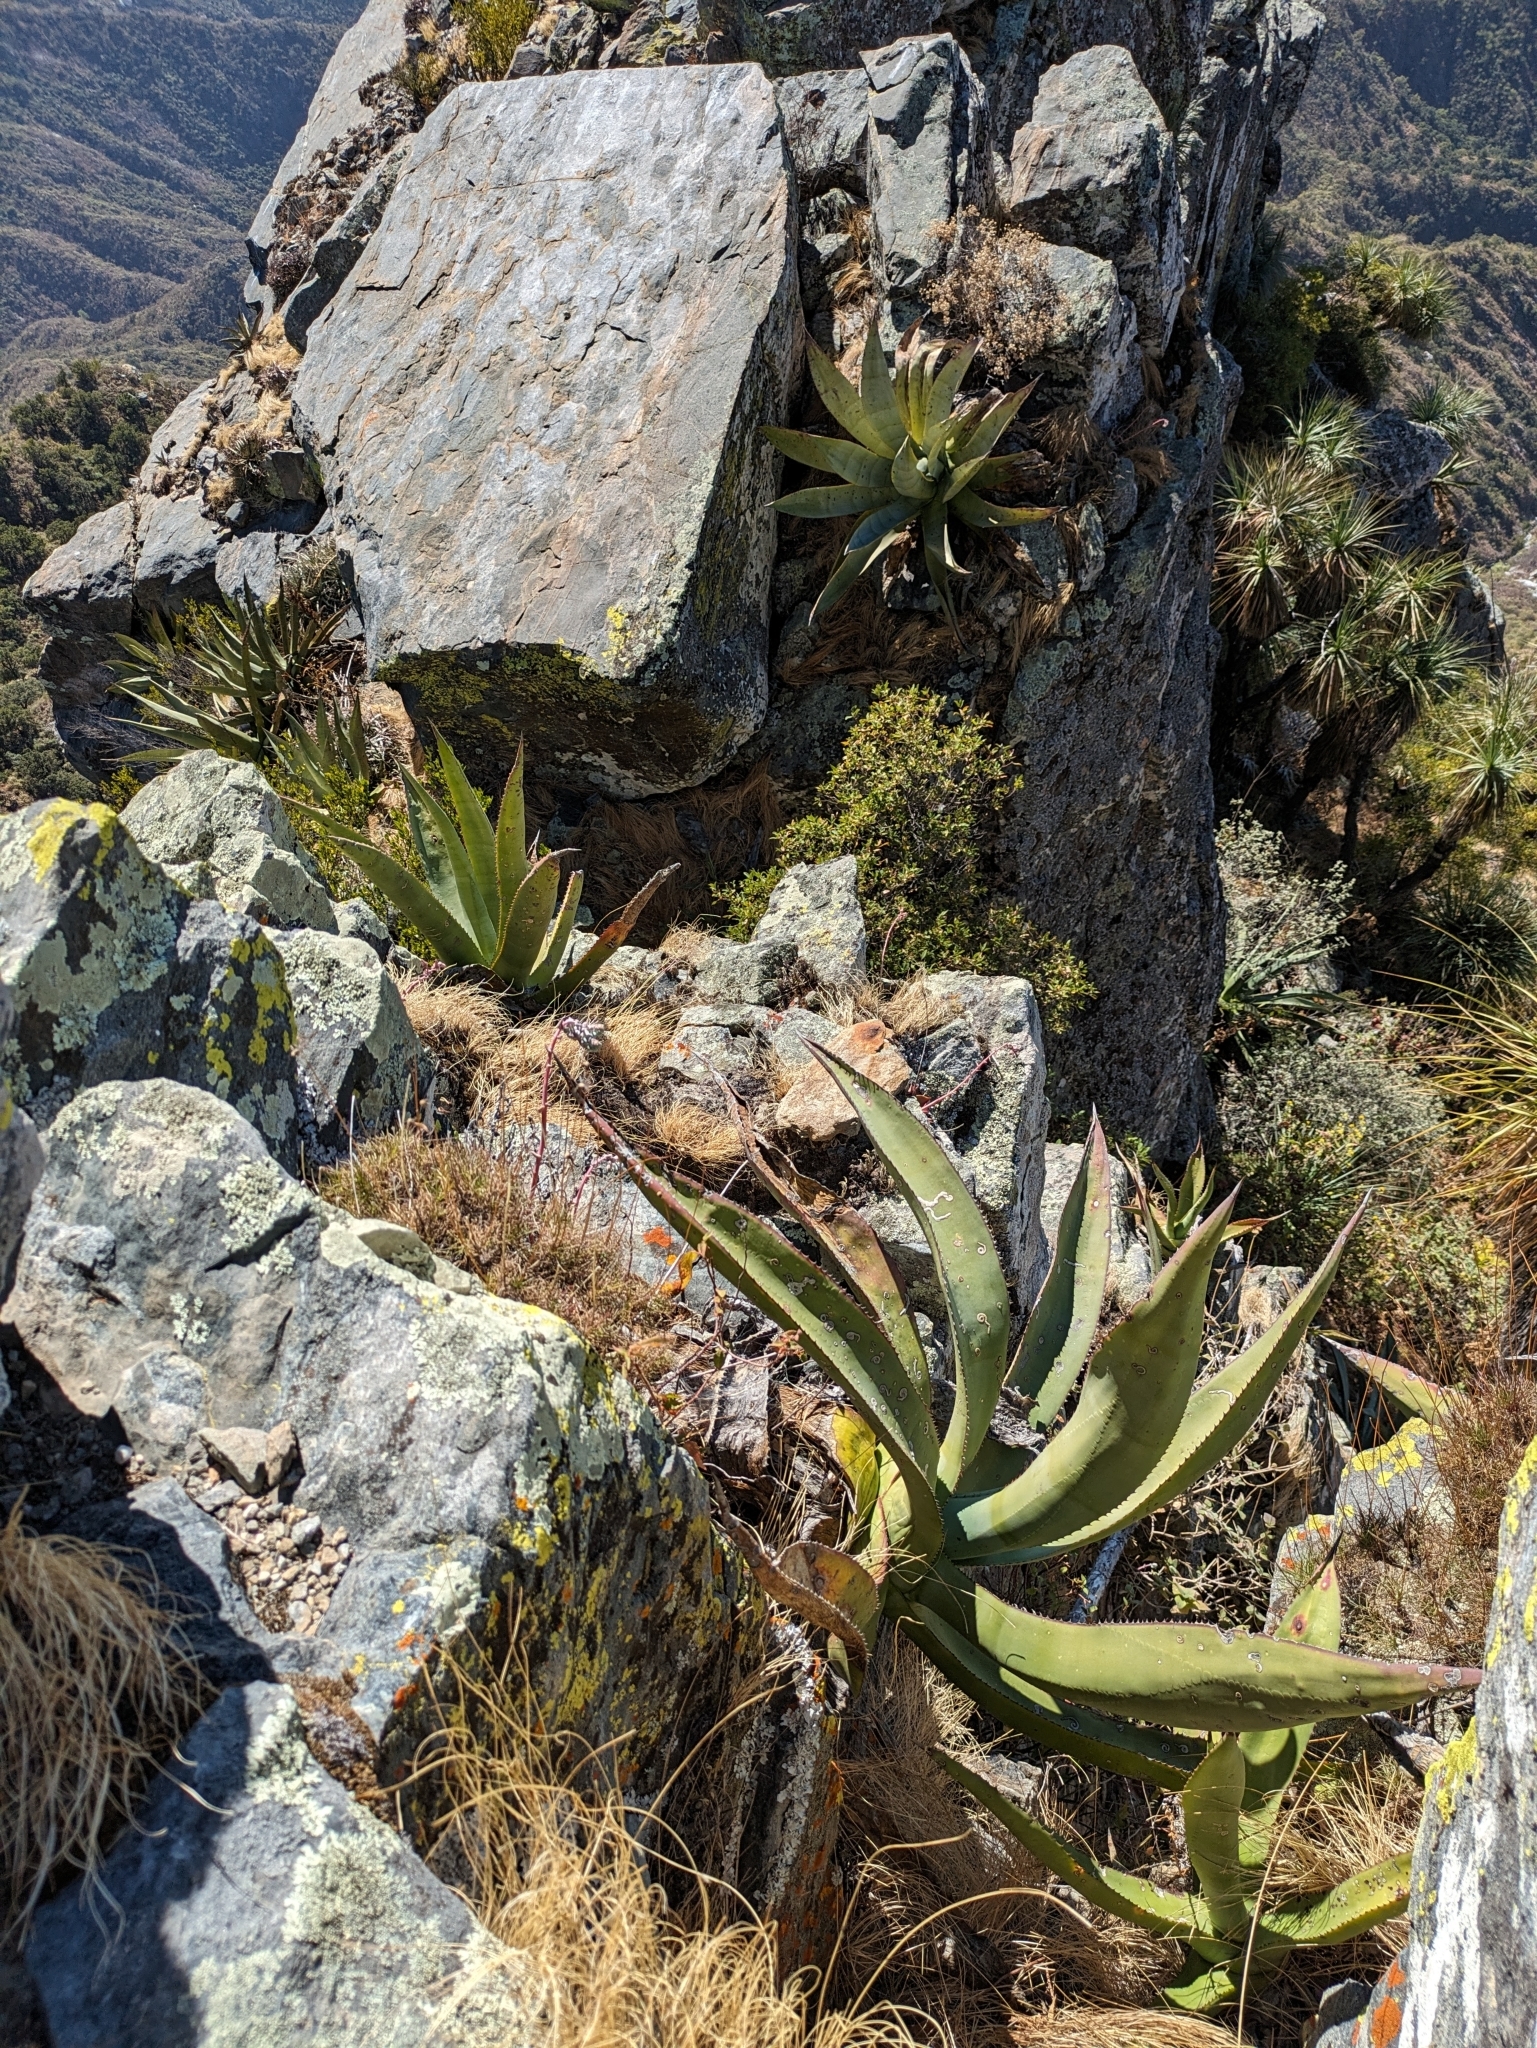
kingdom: Plantae
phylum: Tracheophyta
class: Magnoliopsida
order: Saxifragales
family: Crassulaceae
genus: Dudleya
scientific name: Dudleya rigida
